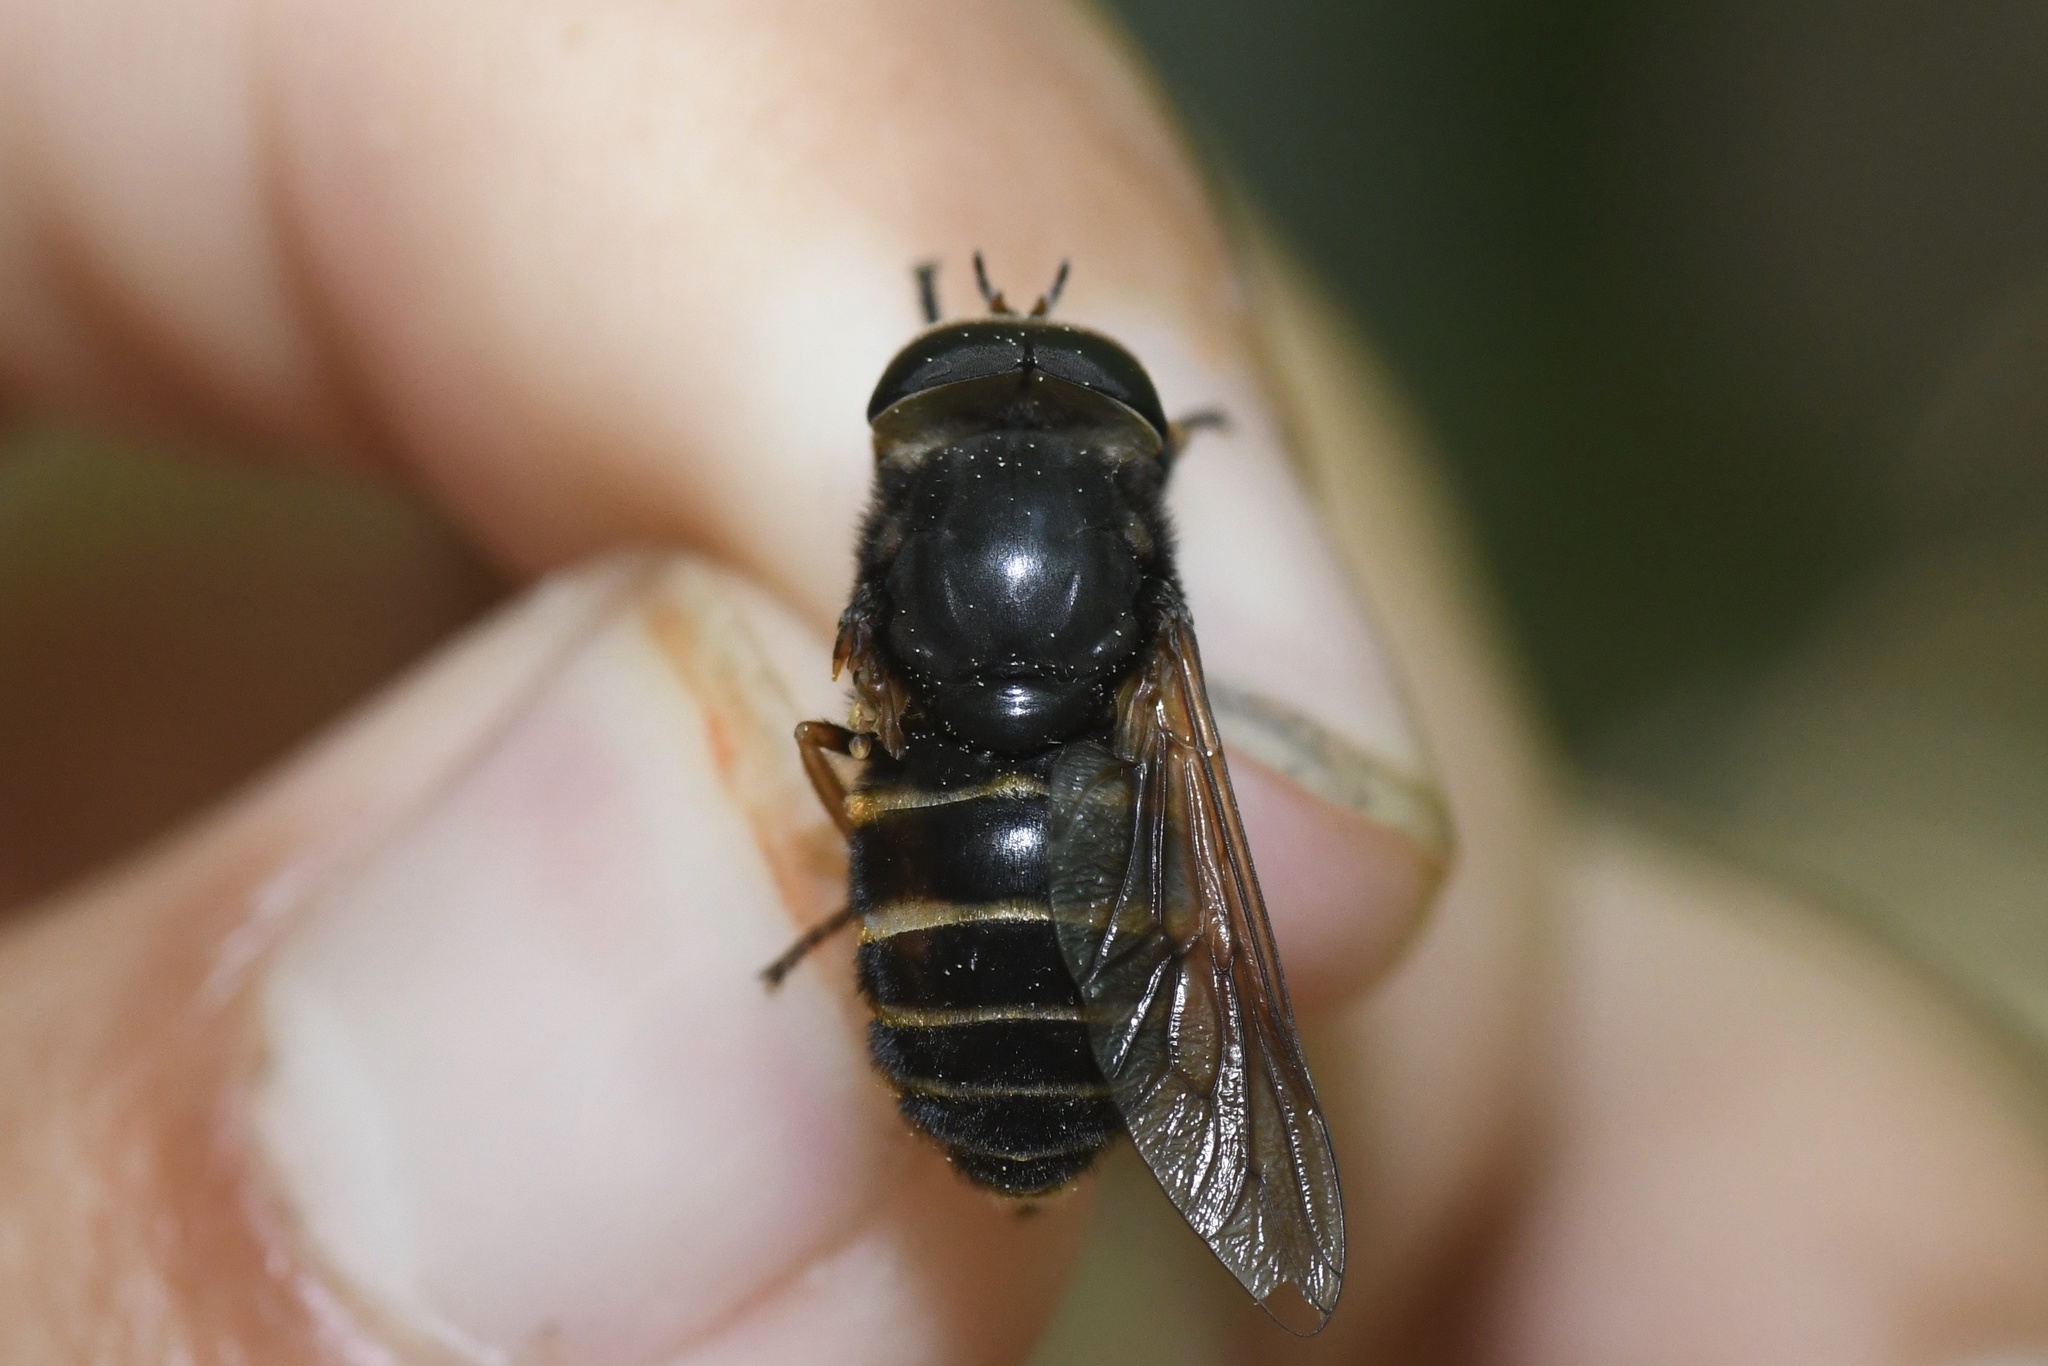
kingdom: Animalia
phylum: Arthropoda
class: Insecta
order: Diptera
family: Tabanidae
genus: Hybomitra
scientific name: Hybomitra zonalis
